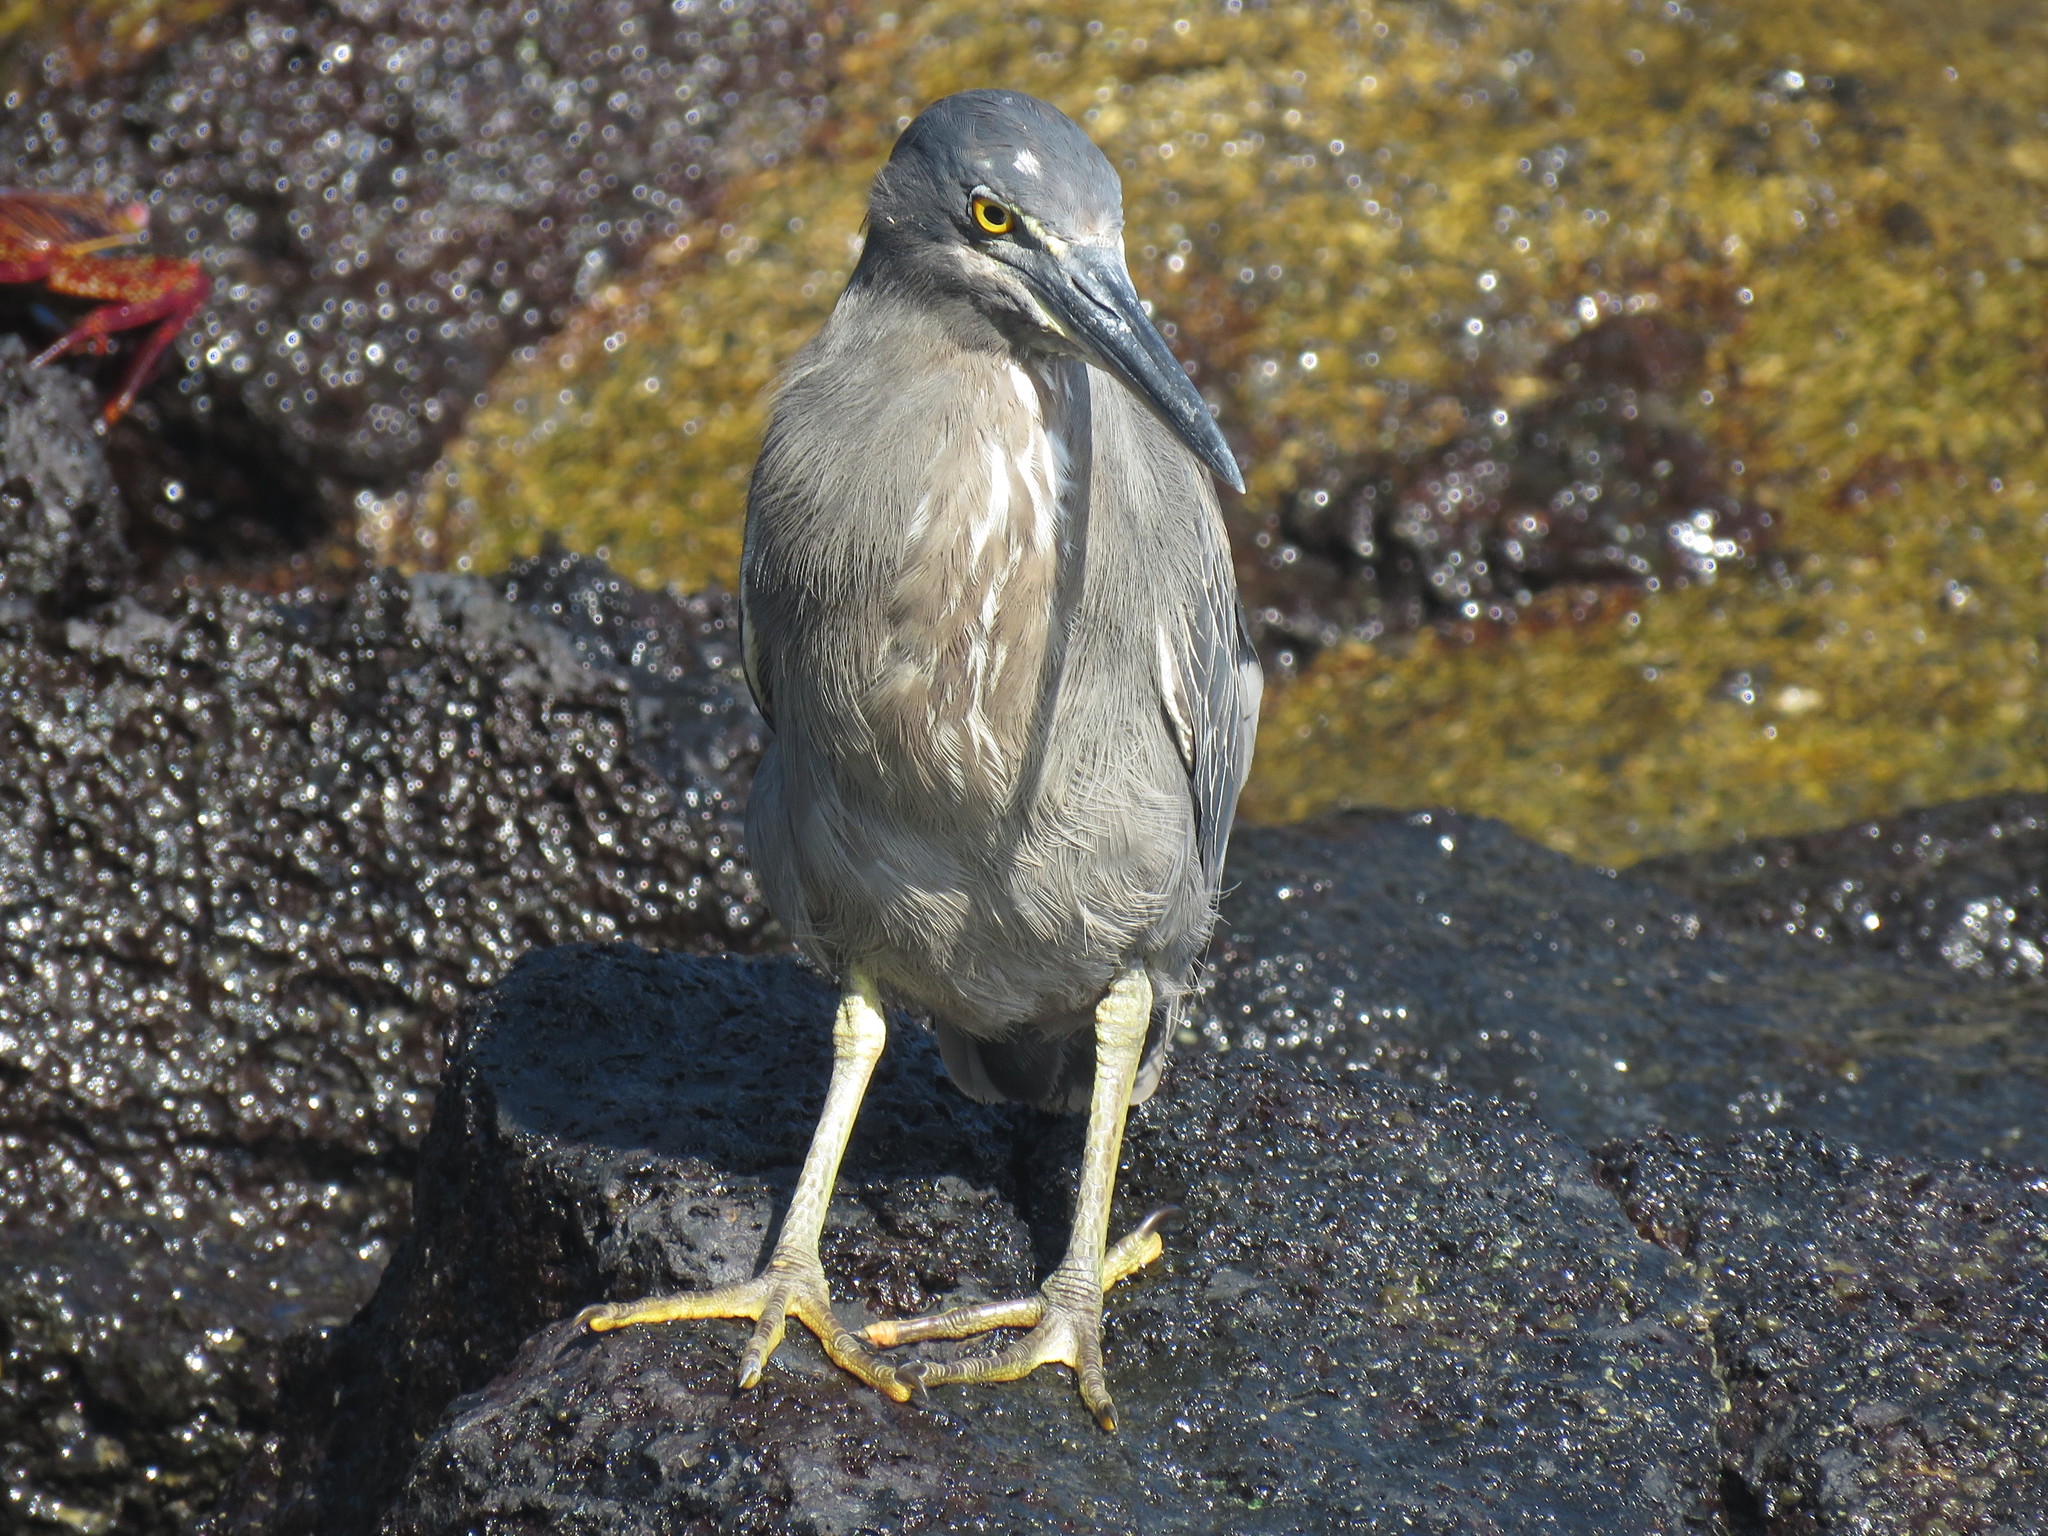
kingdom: Animalia
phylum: Chordata
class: Aves
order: Pelecaniformes
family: Ardeidae
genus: Butorides
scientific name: Butorides striata
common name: Striated heron
